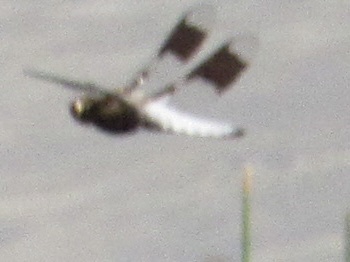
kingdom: Animalia
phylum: Arthropoda
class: Insecta
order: Odonata
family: Libellulidae
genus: Plathemis
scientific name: Plathemis lydia
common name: Common whitetail
